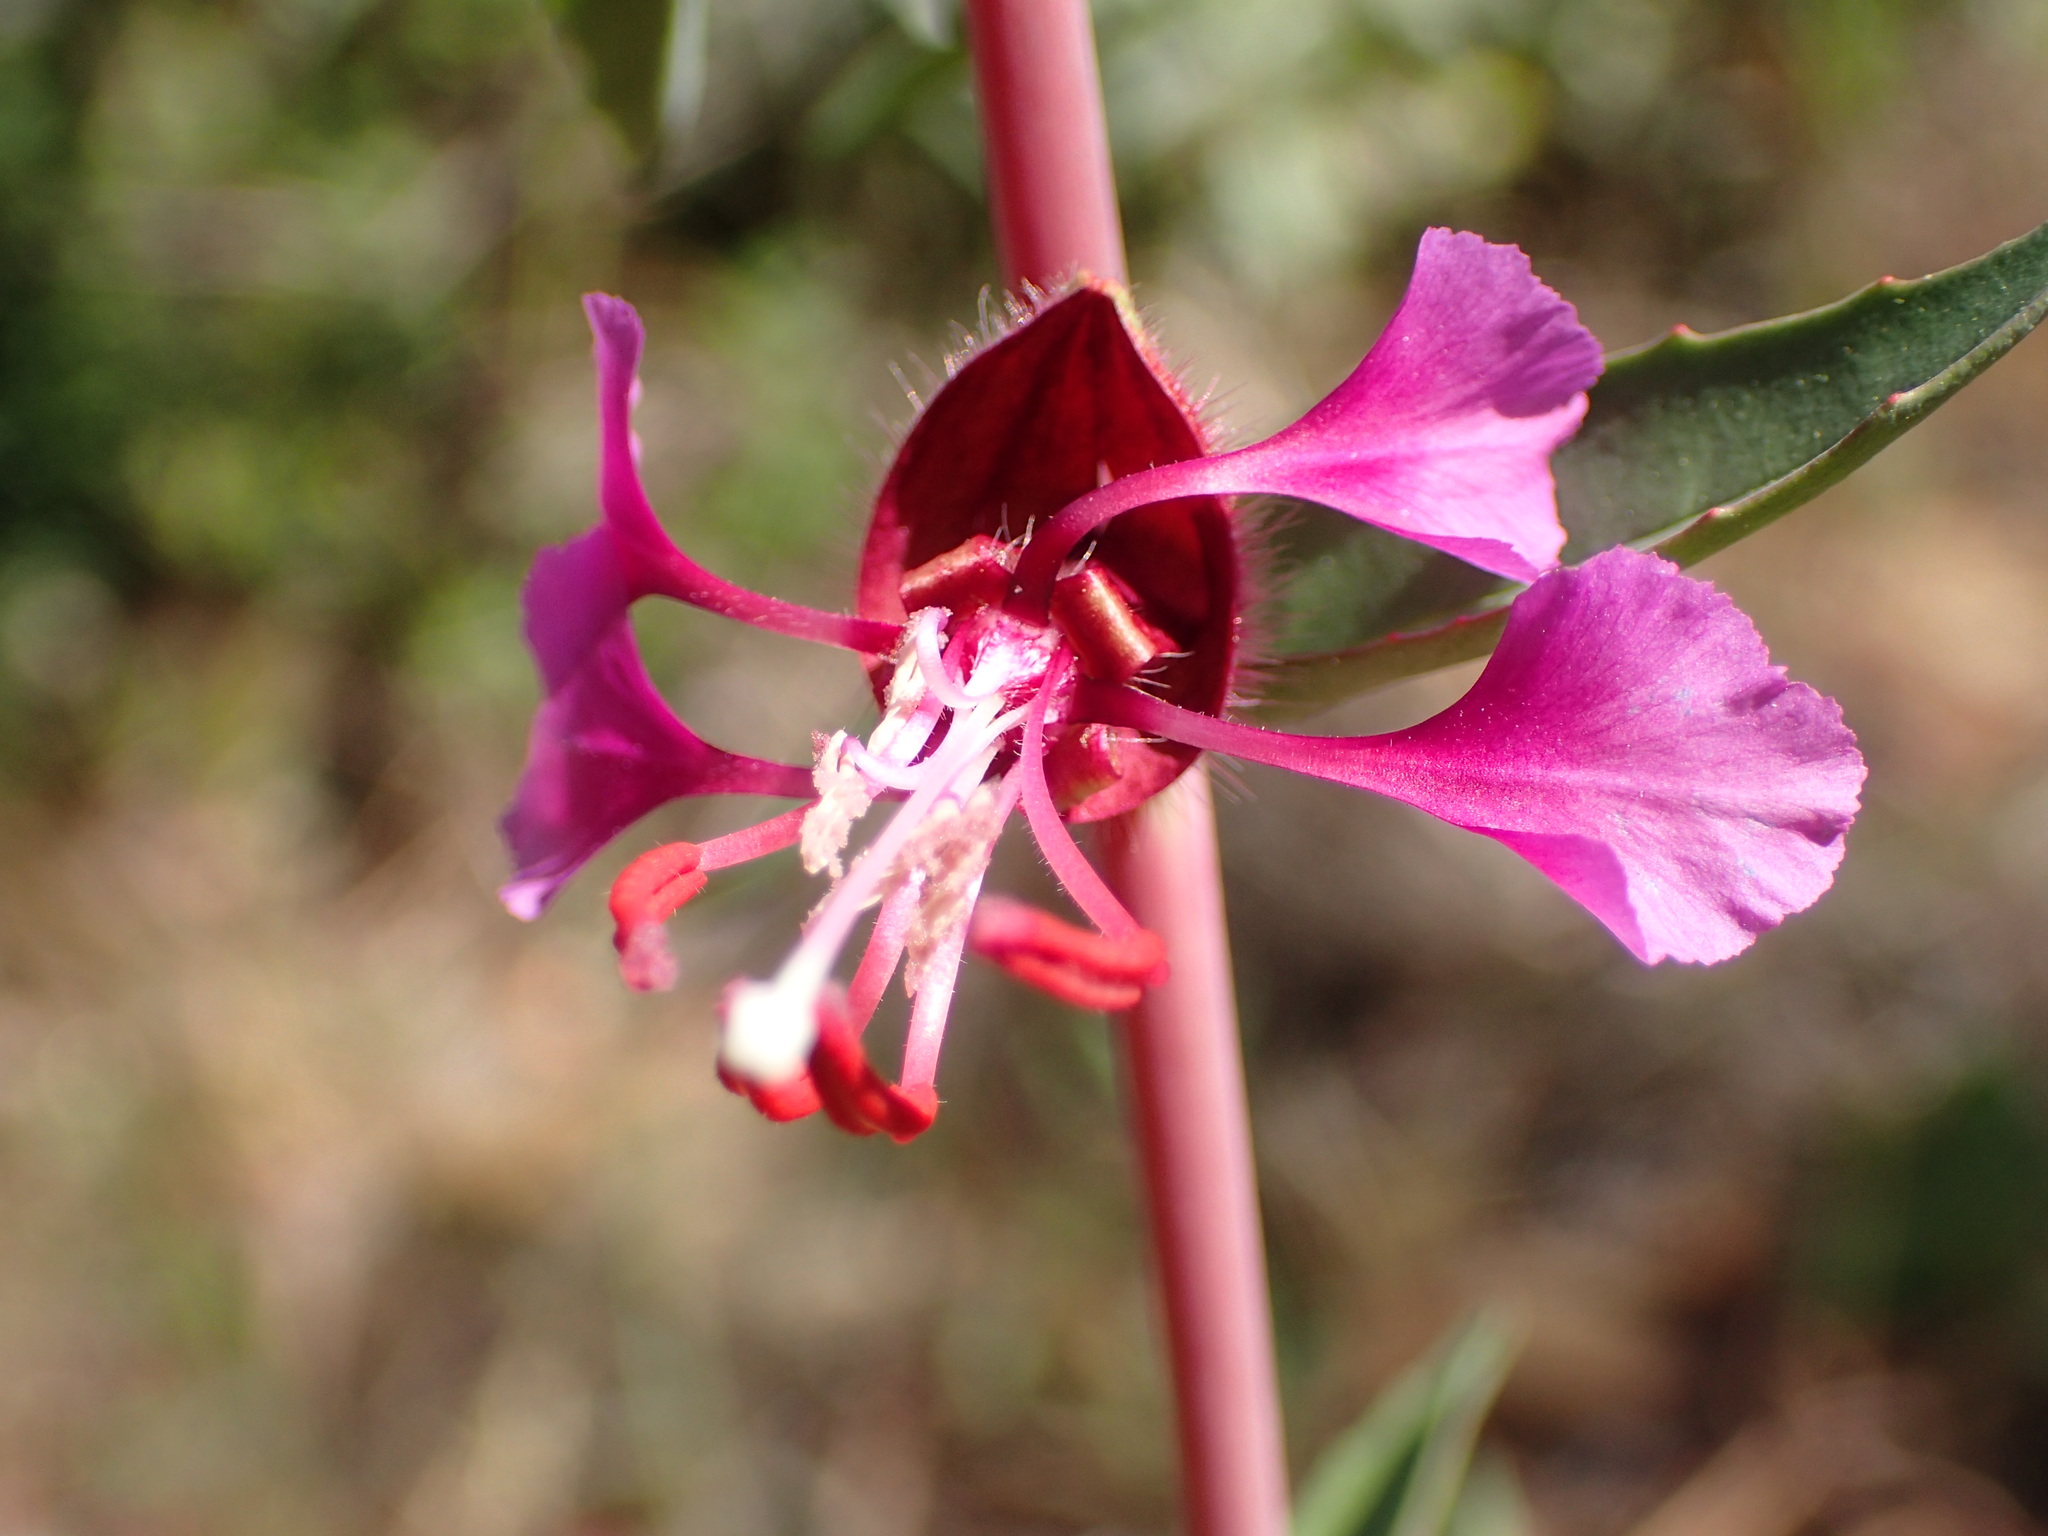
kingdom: Plantae
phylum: Tracheophyta
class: Magnoliopsida
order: Myrtales
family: Onagraceae
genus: Clarkia
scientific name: Clarkia unguiculata
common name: Clarkia
